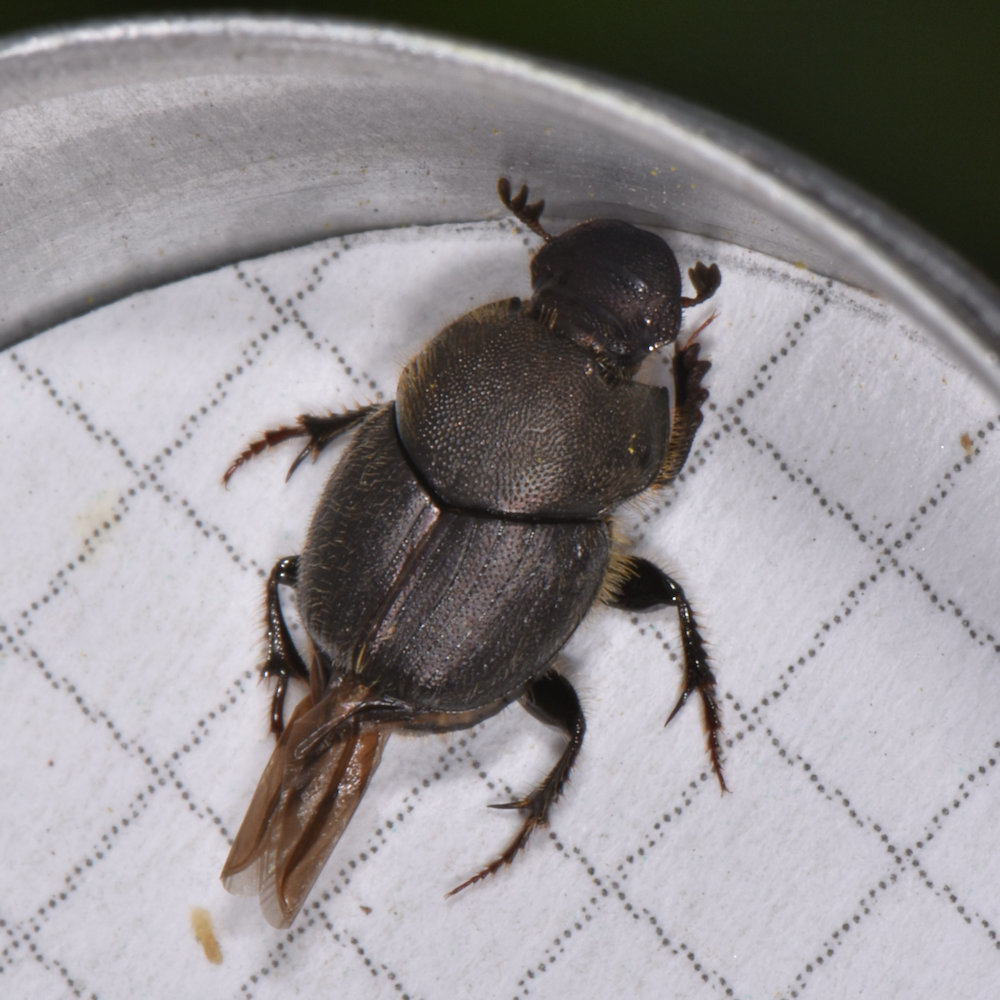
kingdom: Animalia
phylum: Arthropoda
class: Insecta
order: Coleoptera
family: Scarabaeidae
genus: Onthophagus
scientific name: Onthophagus hecate
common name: Scooped scarab
